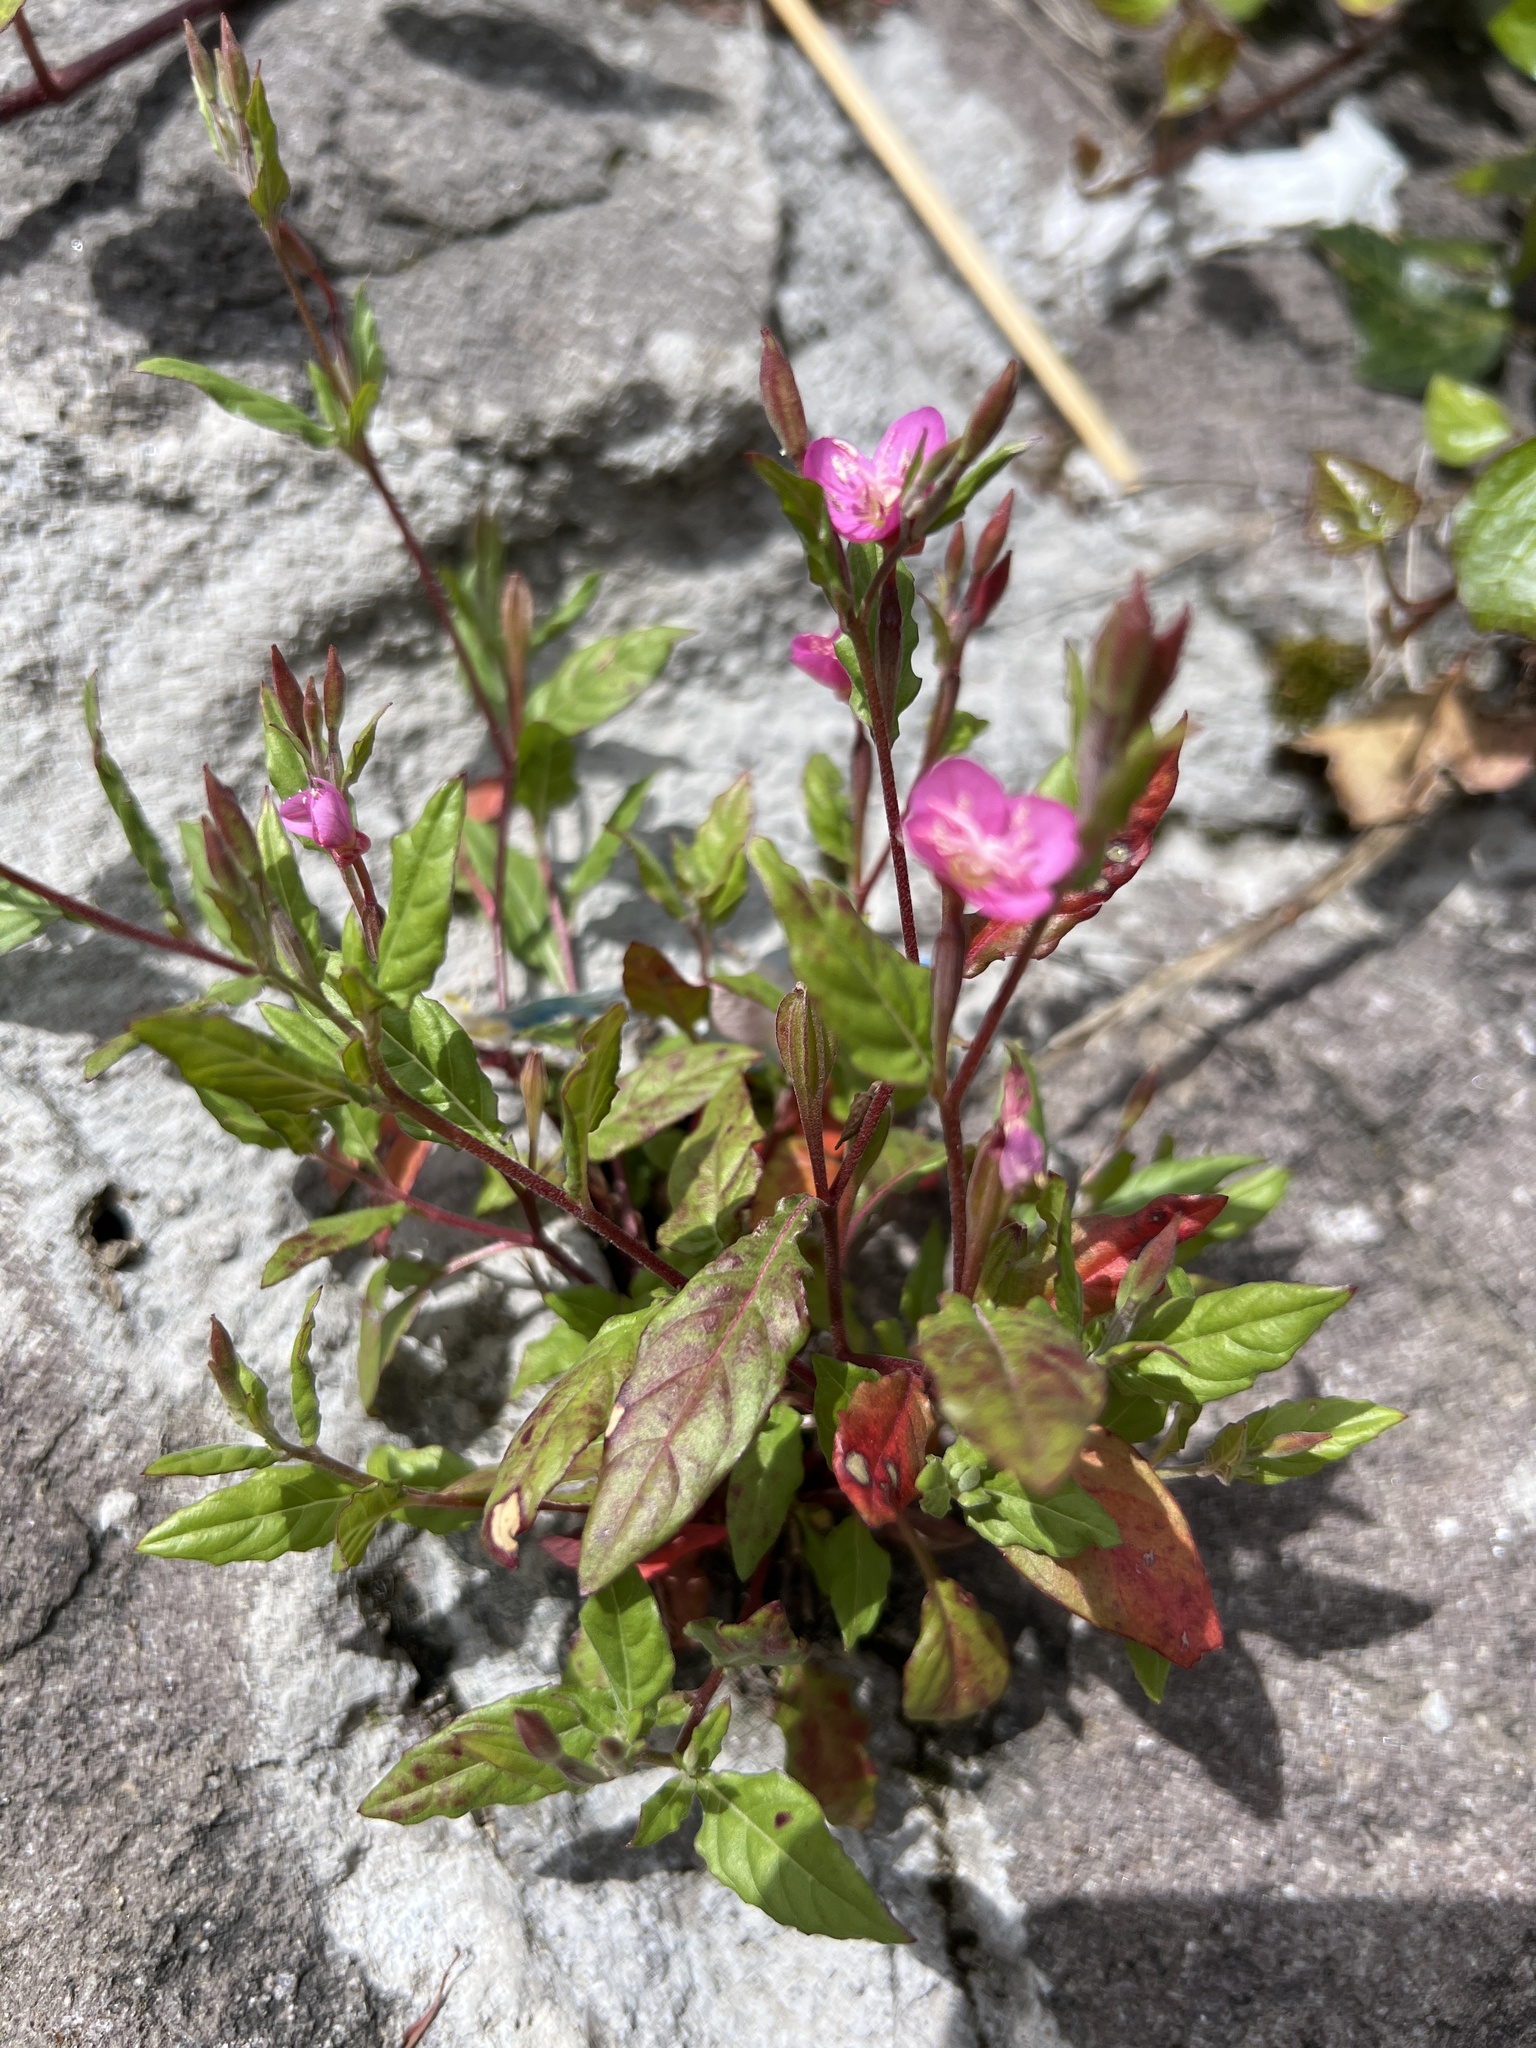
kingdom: Plantae
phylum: Tracheophyta
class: Magnoliopsida
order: Myrtales
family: Onagraceae
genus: Oenothera
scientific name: Oenothera rosea
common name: Rosy evening-primrose
